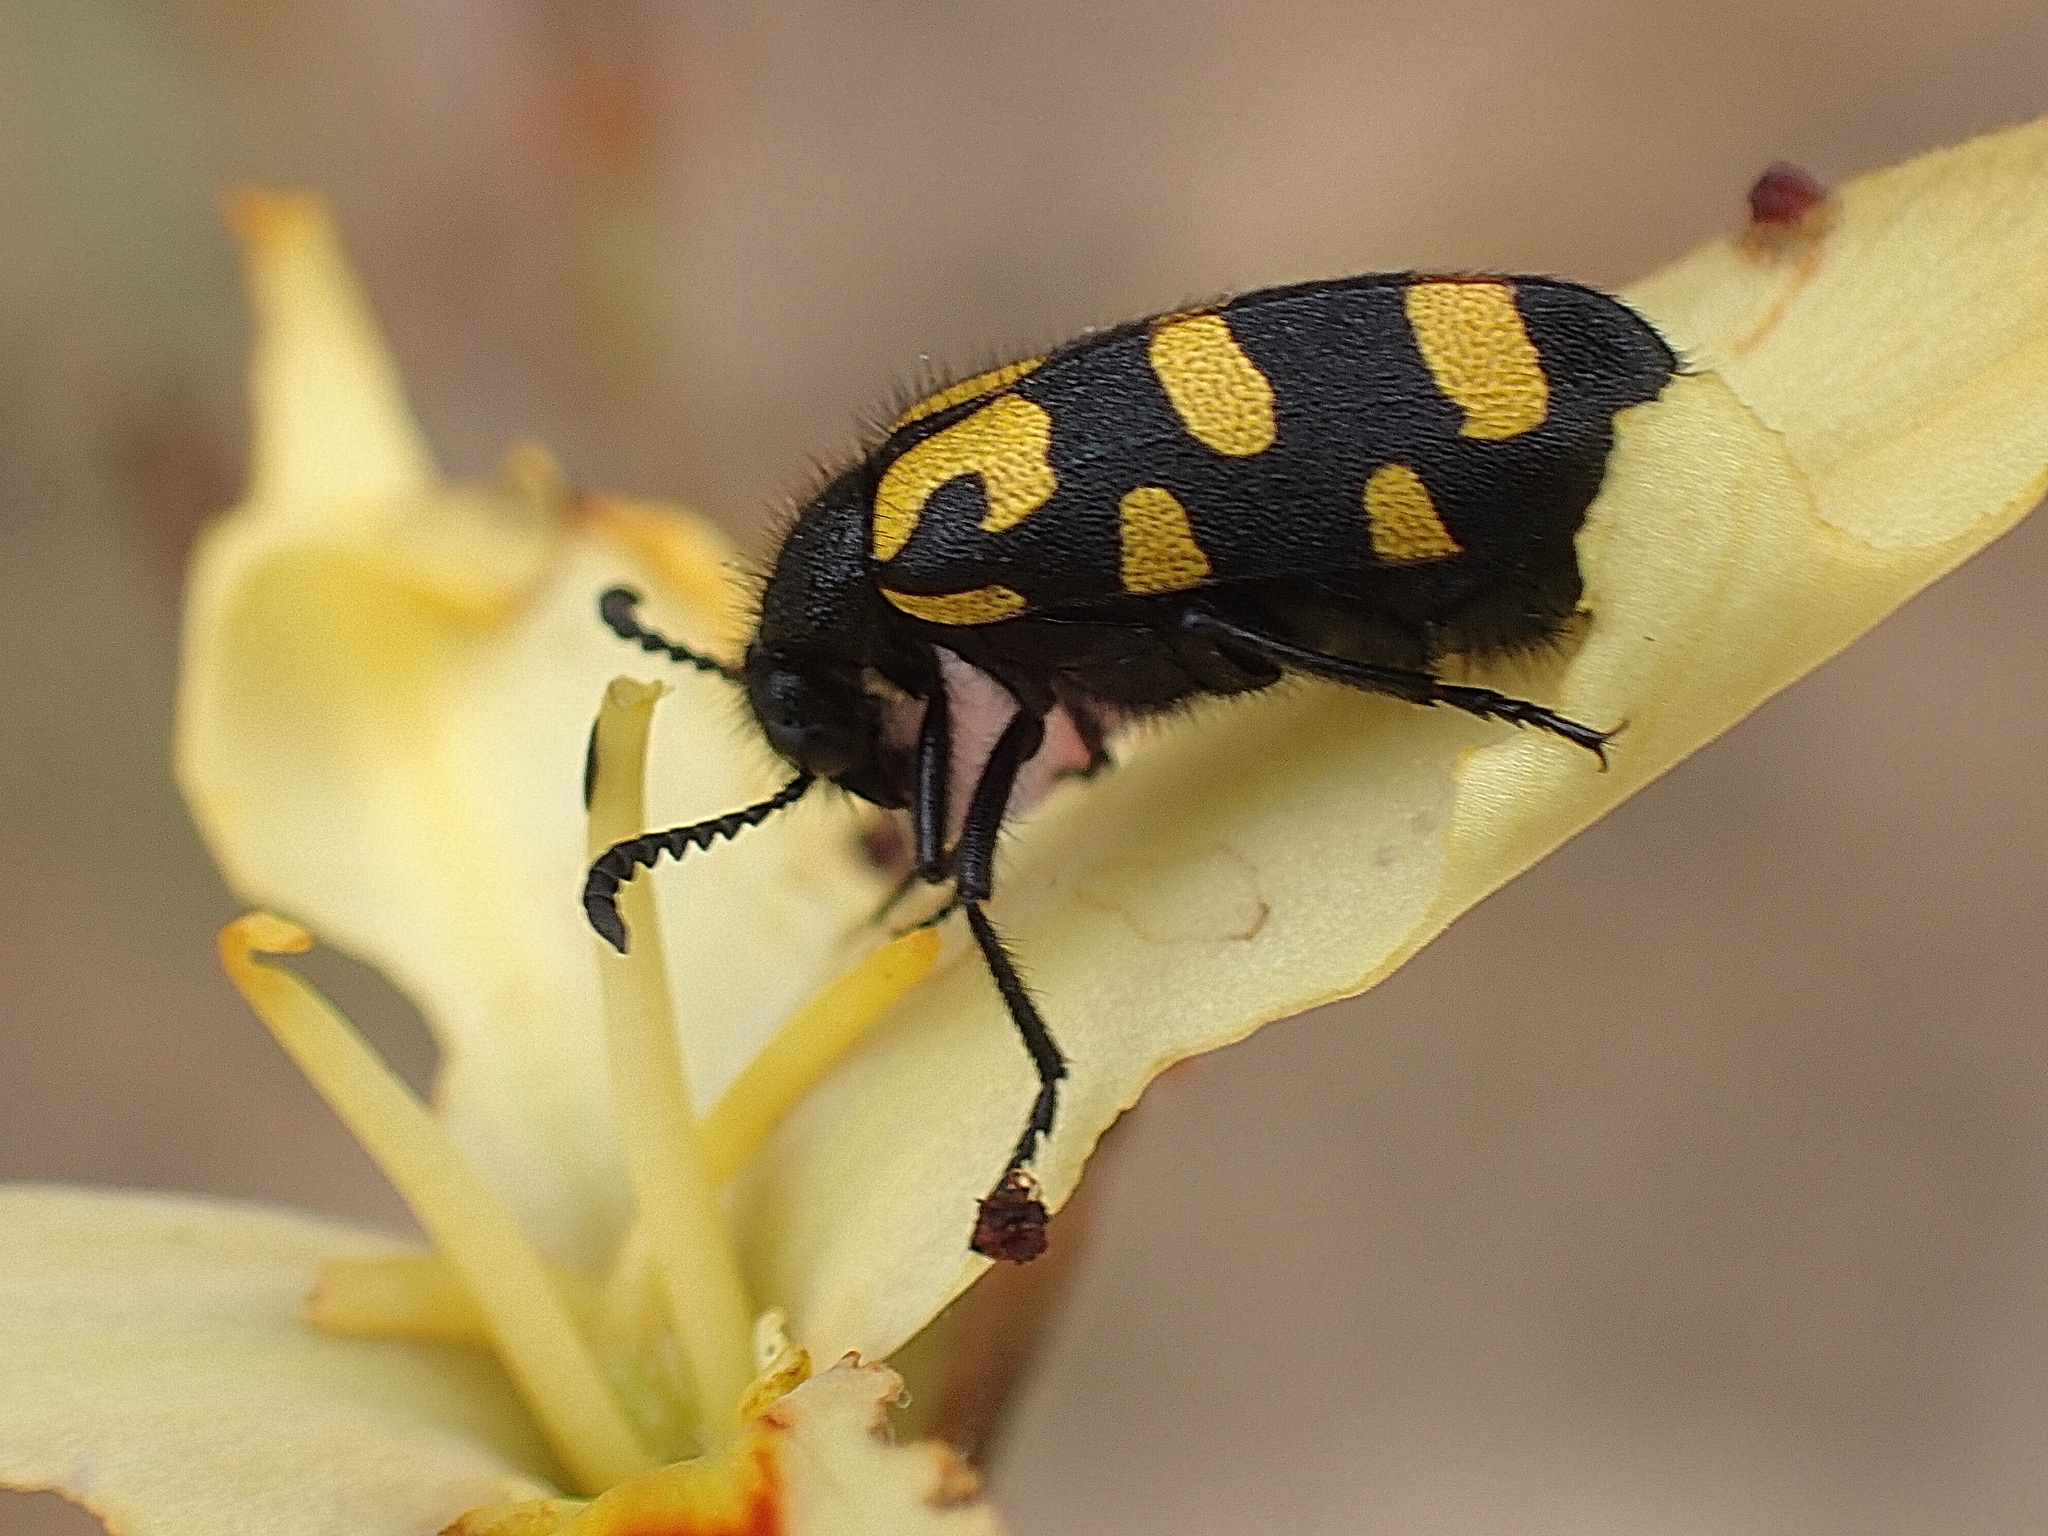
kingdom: Animalia
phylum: Arthropoda
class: Insecta
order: Coleoptera
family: Meloidae
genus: Ceroctis
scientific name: Ceroctis capensis
